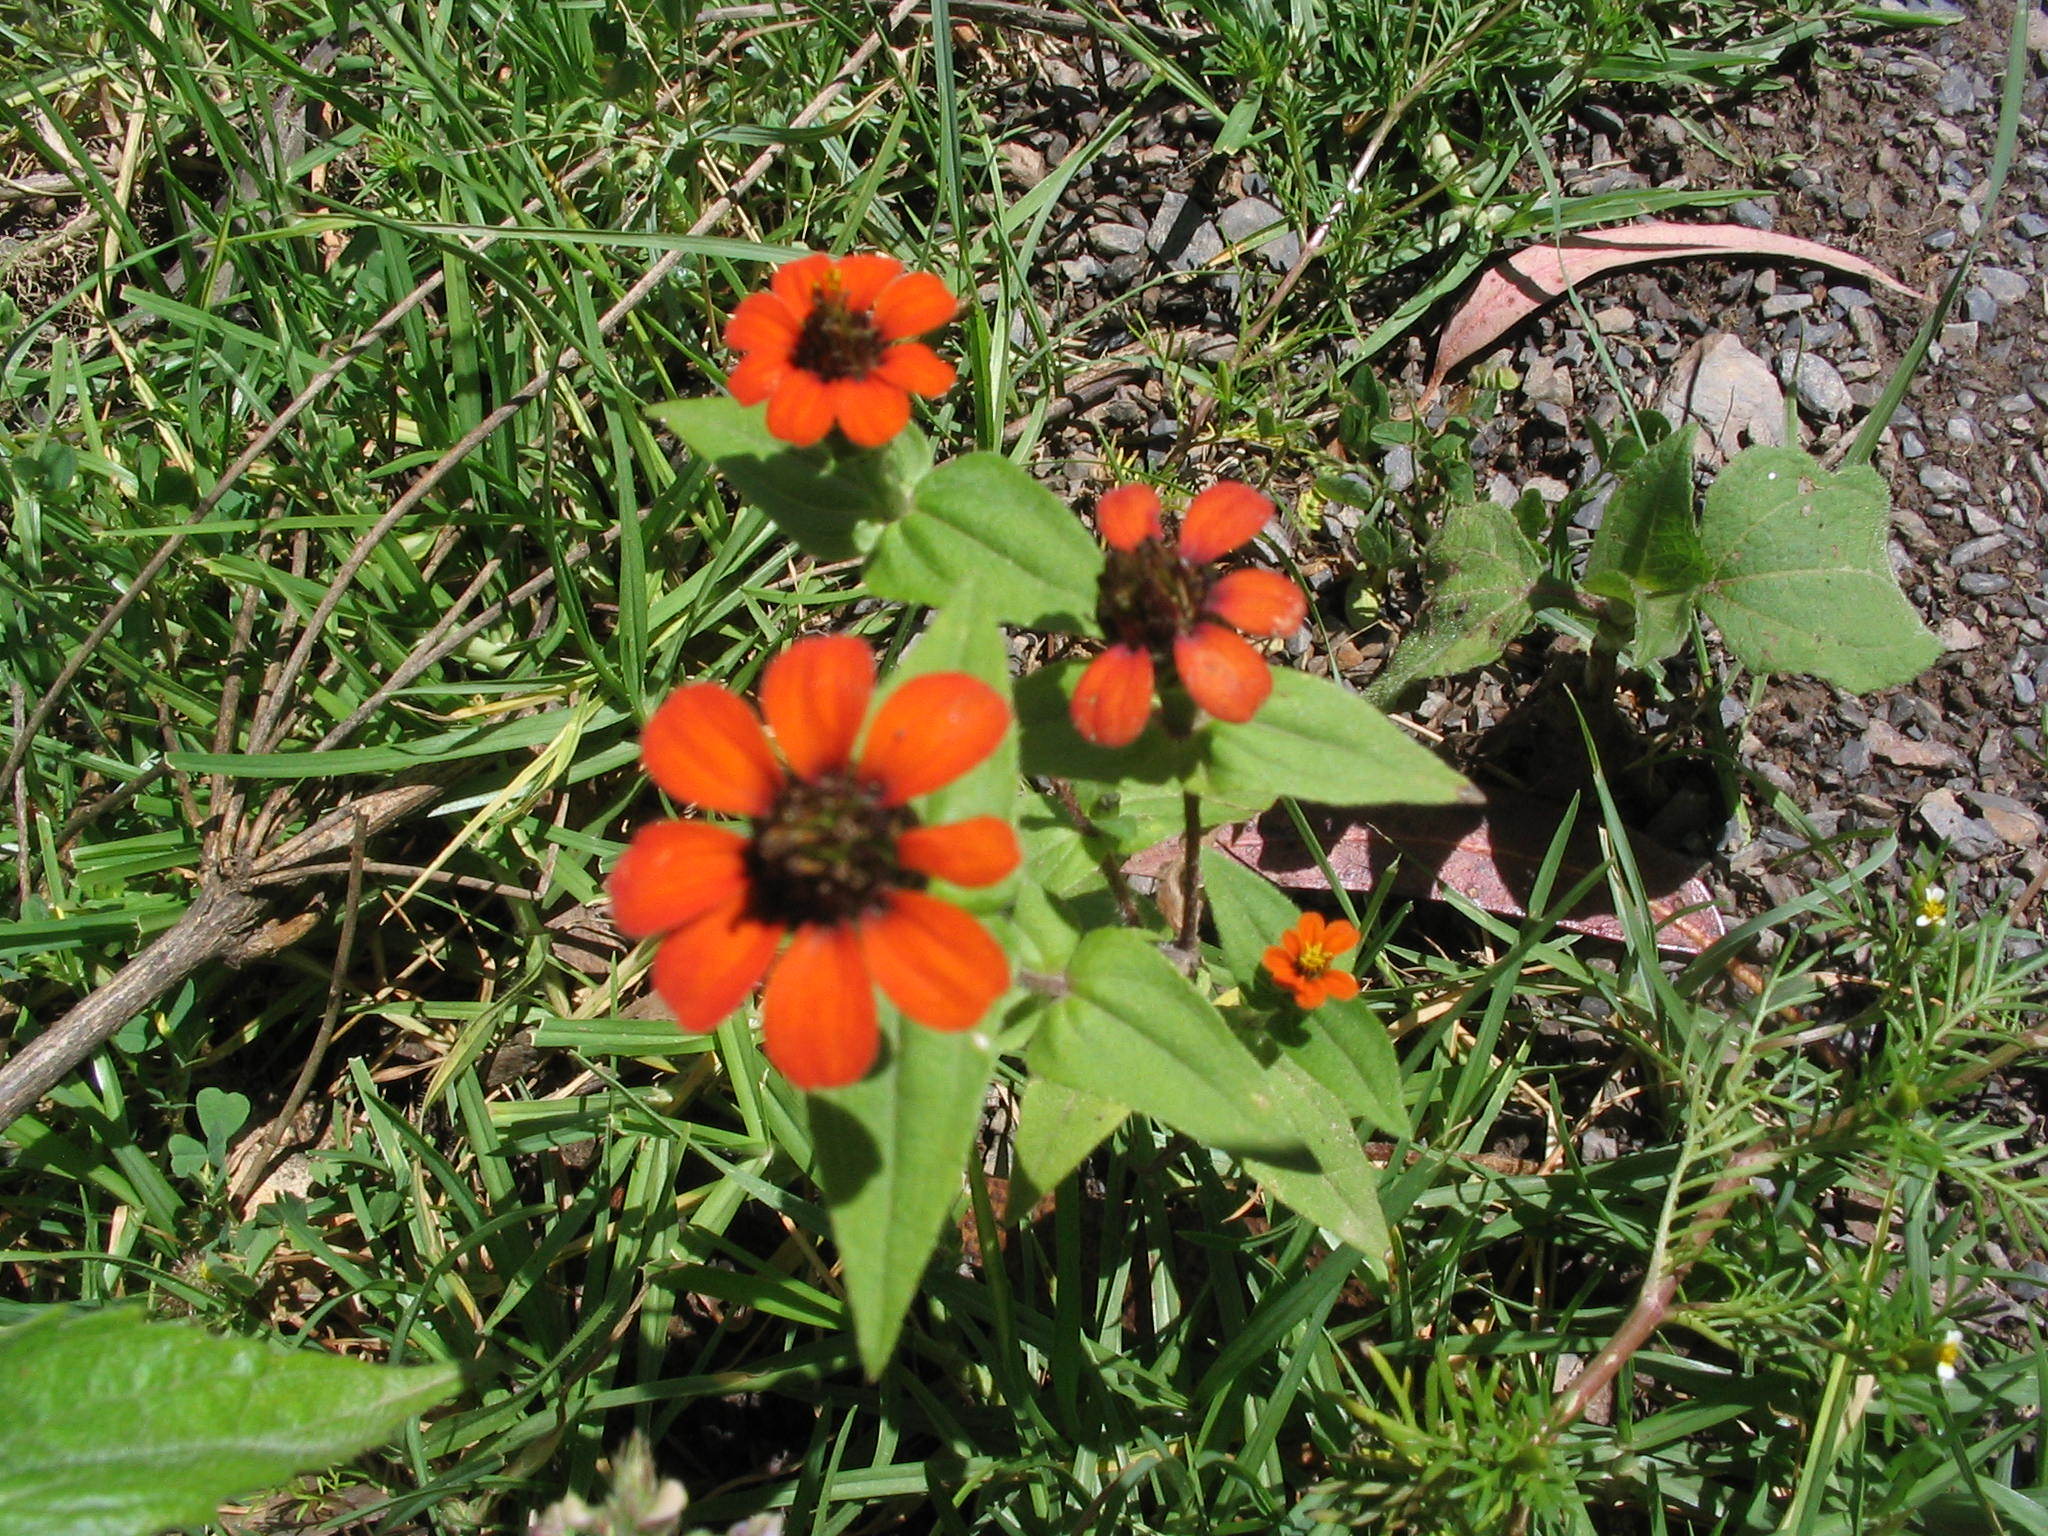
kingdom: Plantae
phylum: Tracheophyta
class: Magnoliopsida
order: Asterales
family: Asteraceae
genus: Zinnia
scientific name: Zinnia peruviana
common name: Peruvian zinnia
